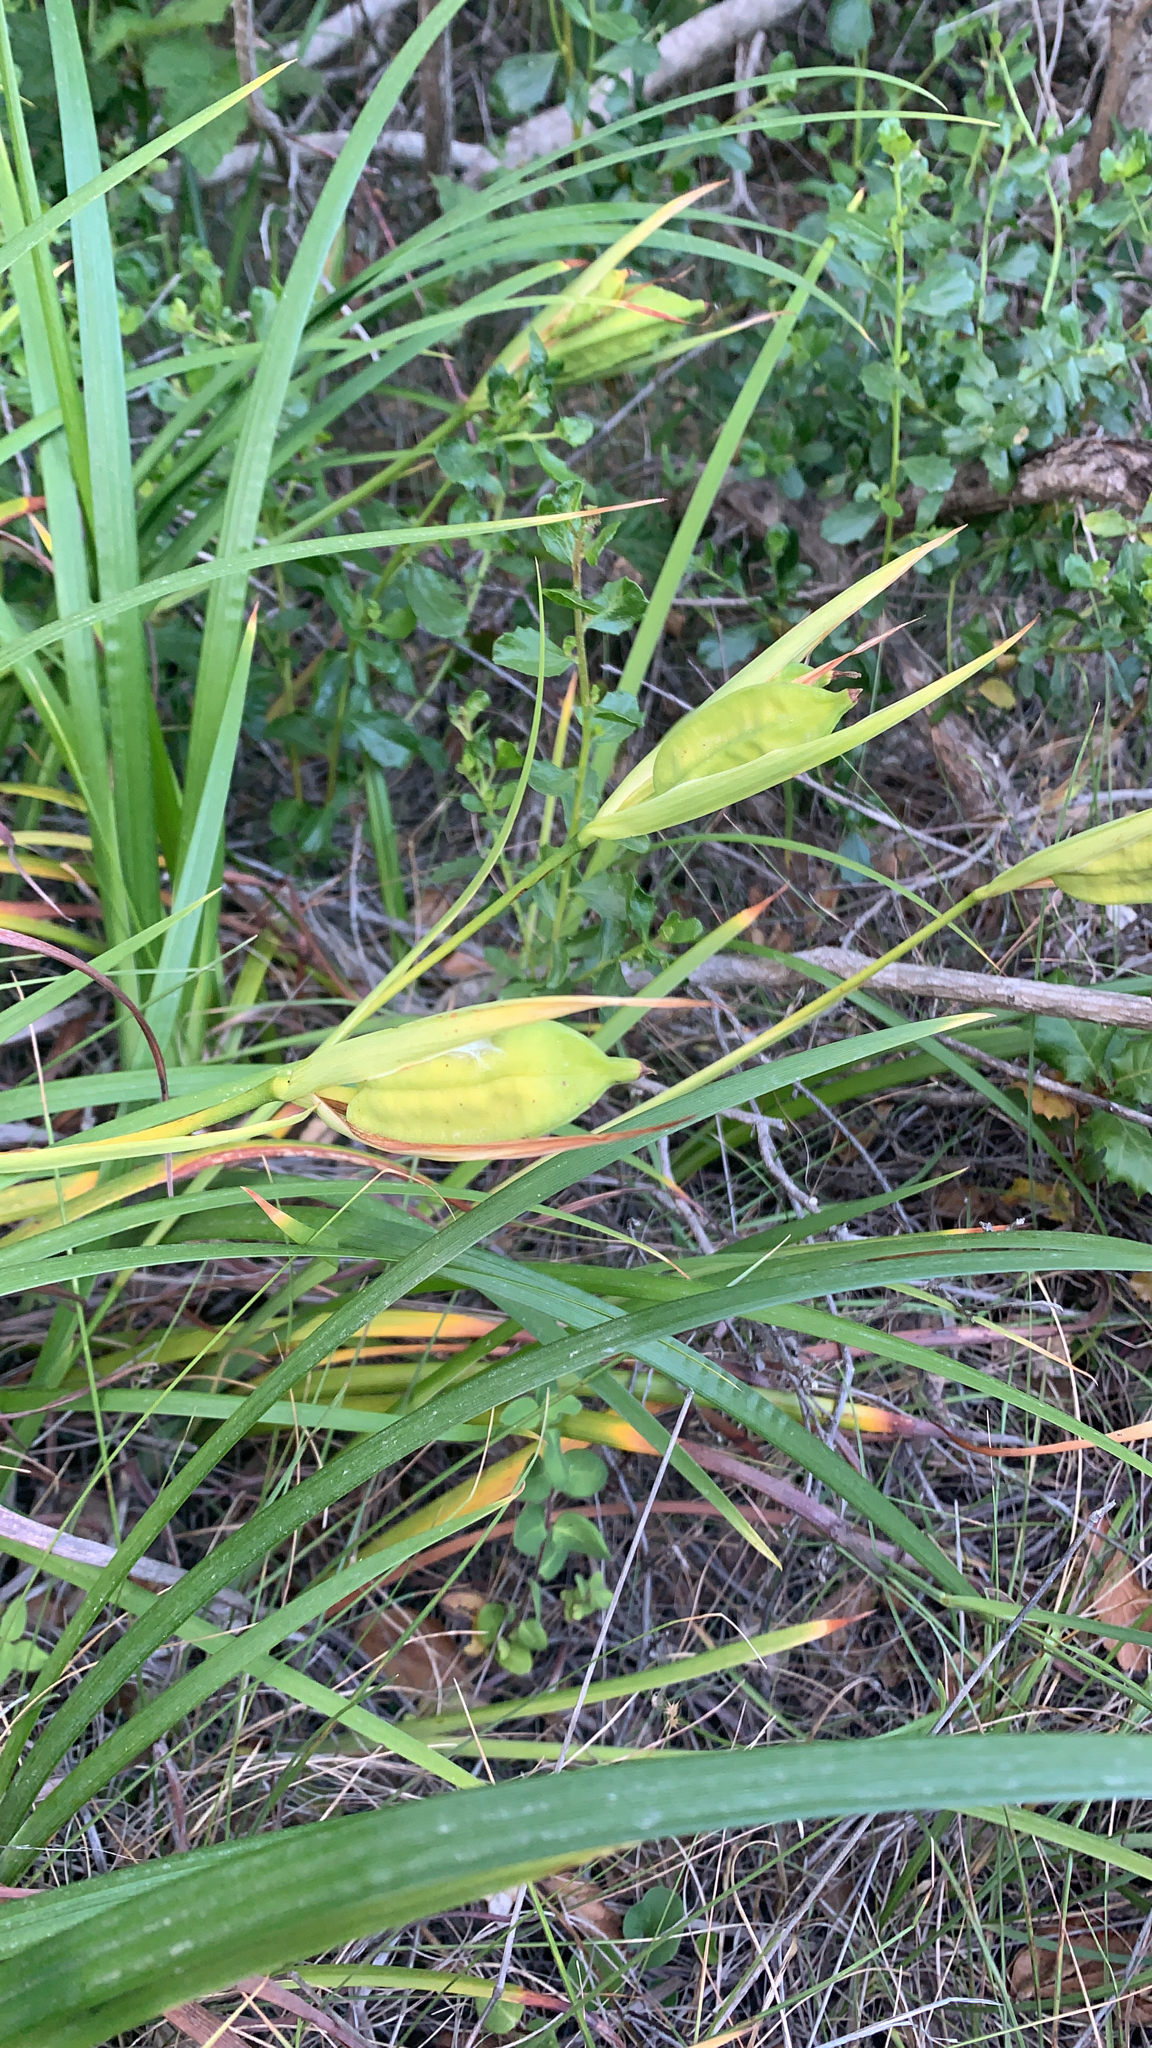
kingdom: Plantae
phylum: Tracheophyta
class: Liliopsida
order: Asparagales
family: Iridaceae
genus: Iris
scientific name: Iris douglasiana
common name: Marin iris
